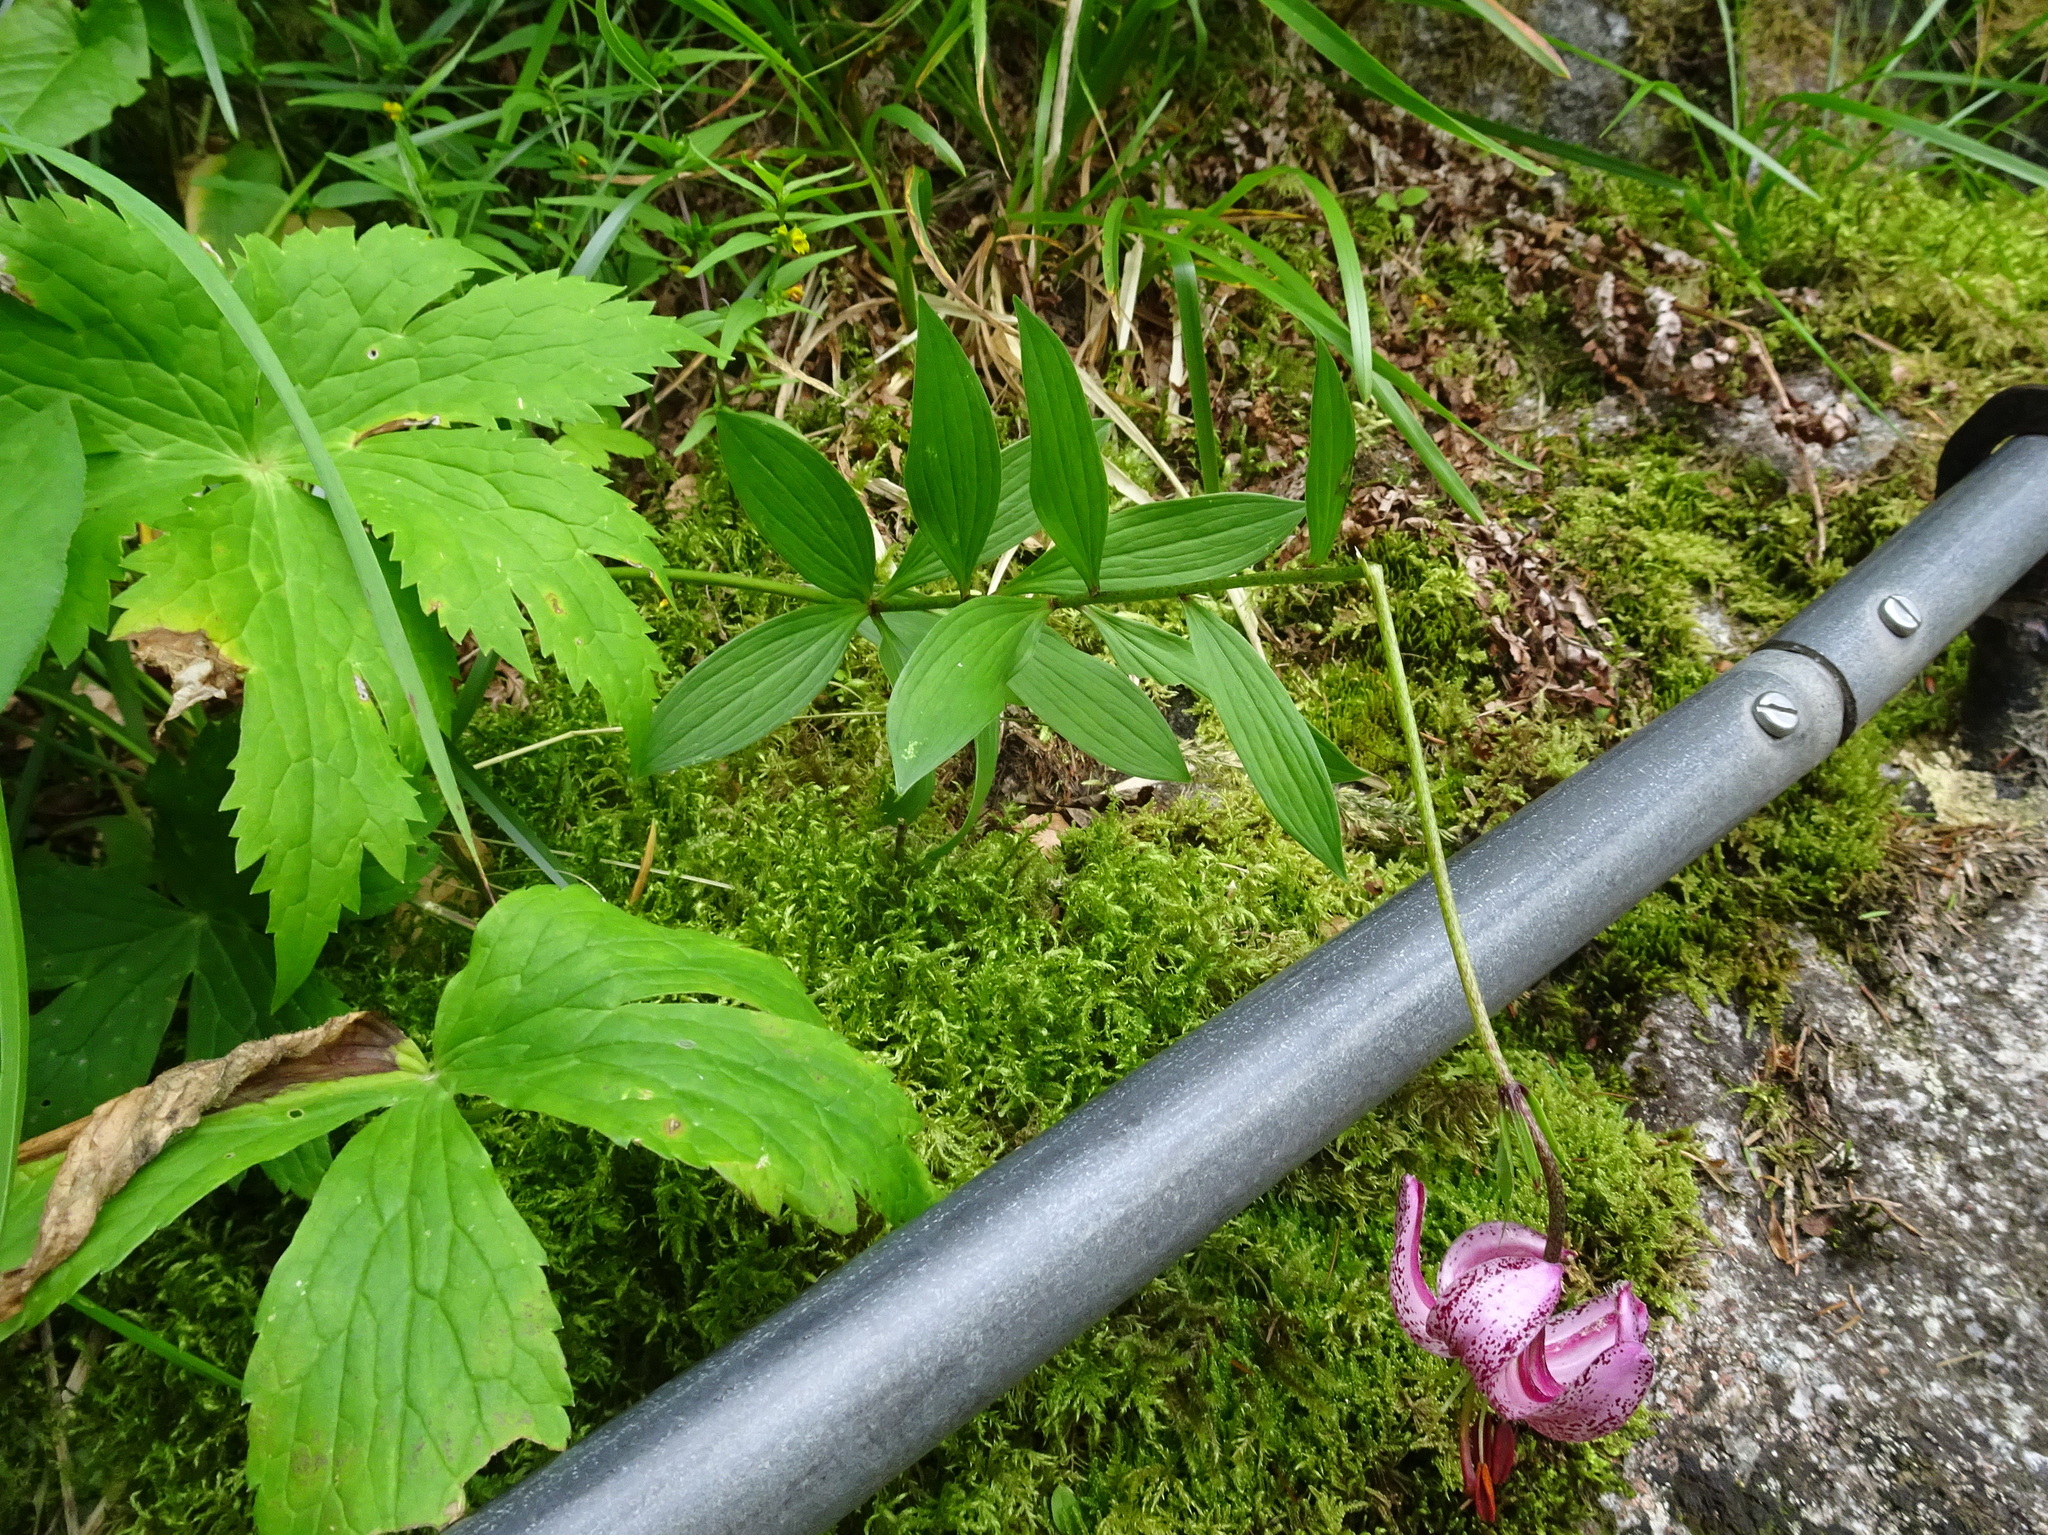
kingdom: Plantae
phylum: Tracheophyta
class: Liliopsida
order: Liliales
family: Liliaceae
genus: Lilium
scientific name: Lilium martagon
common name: Martagon lily
